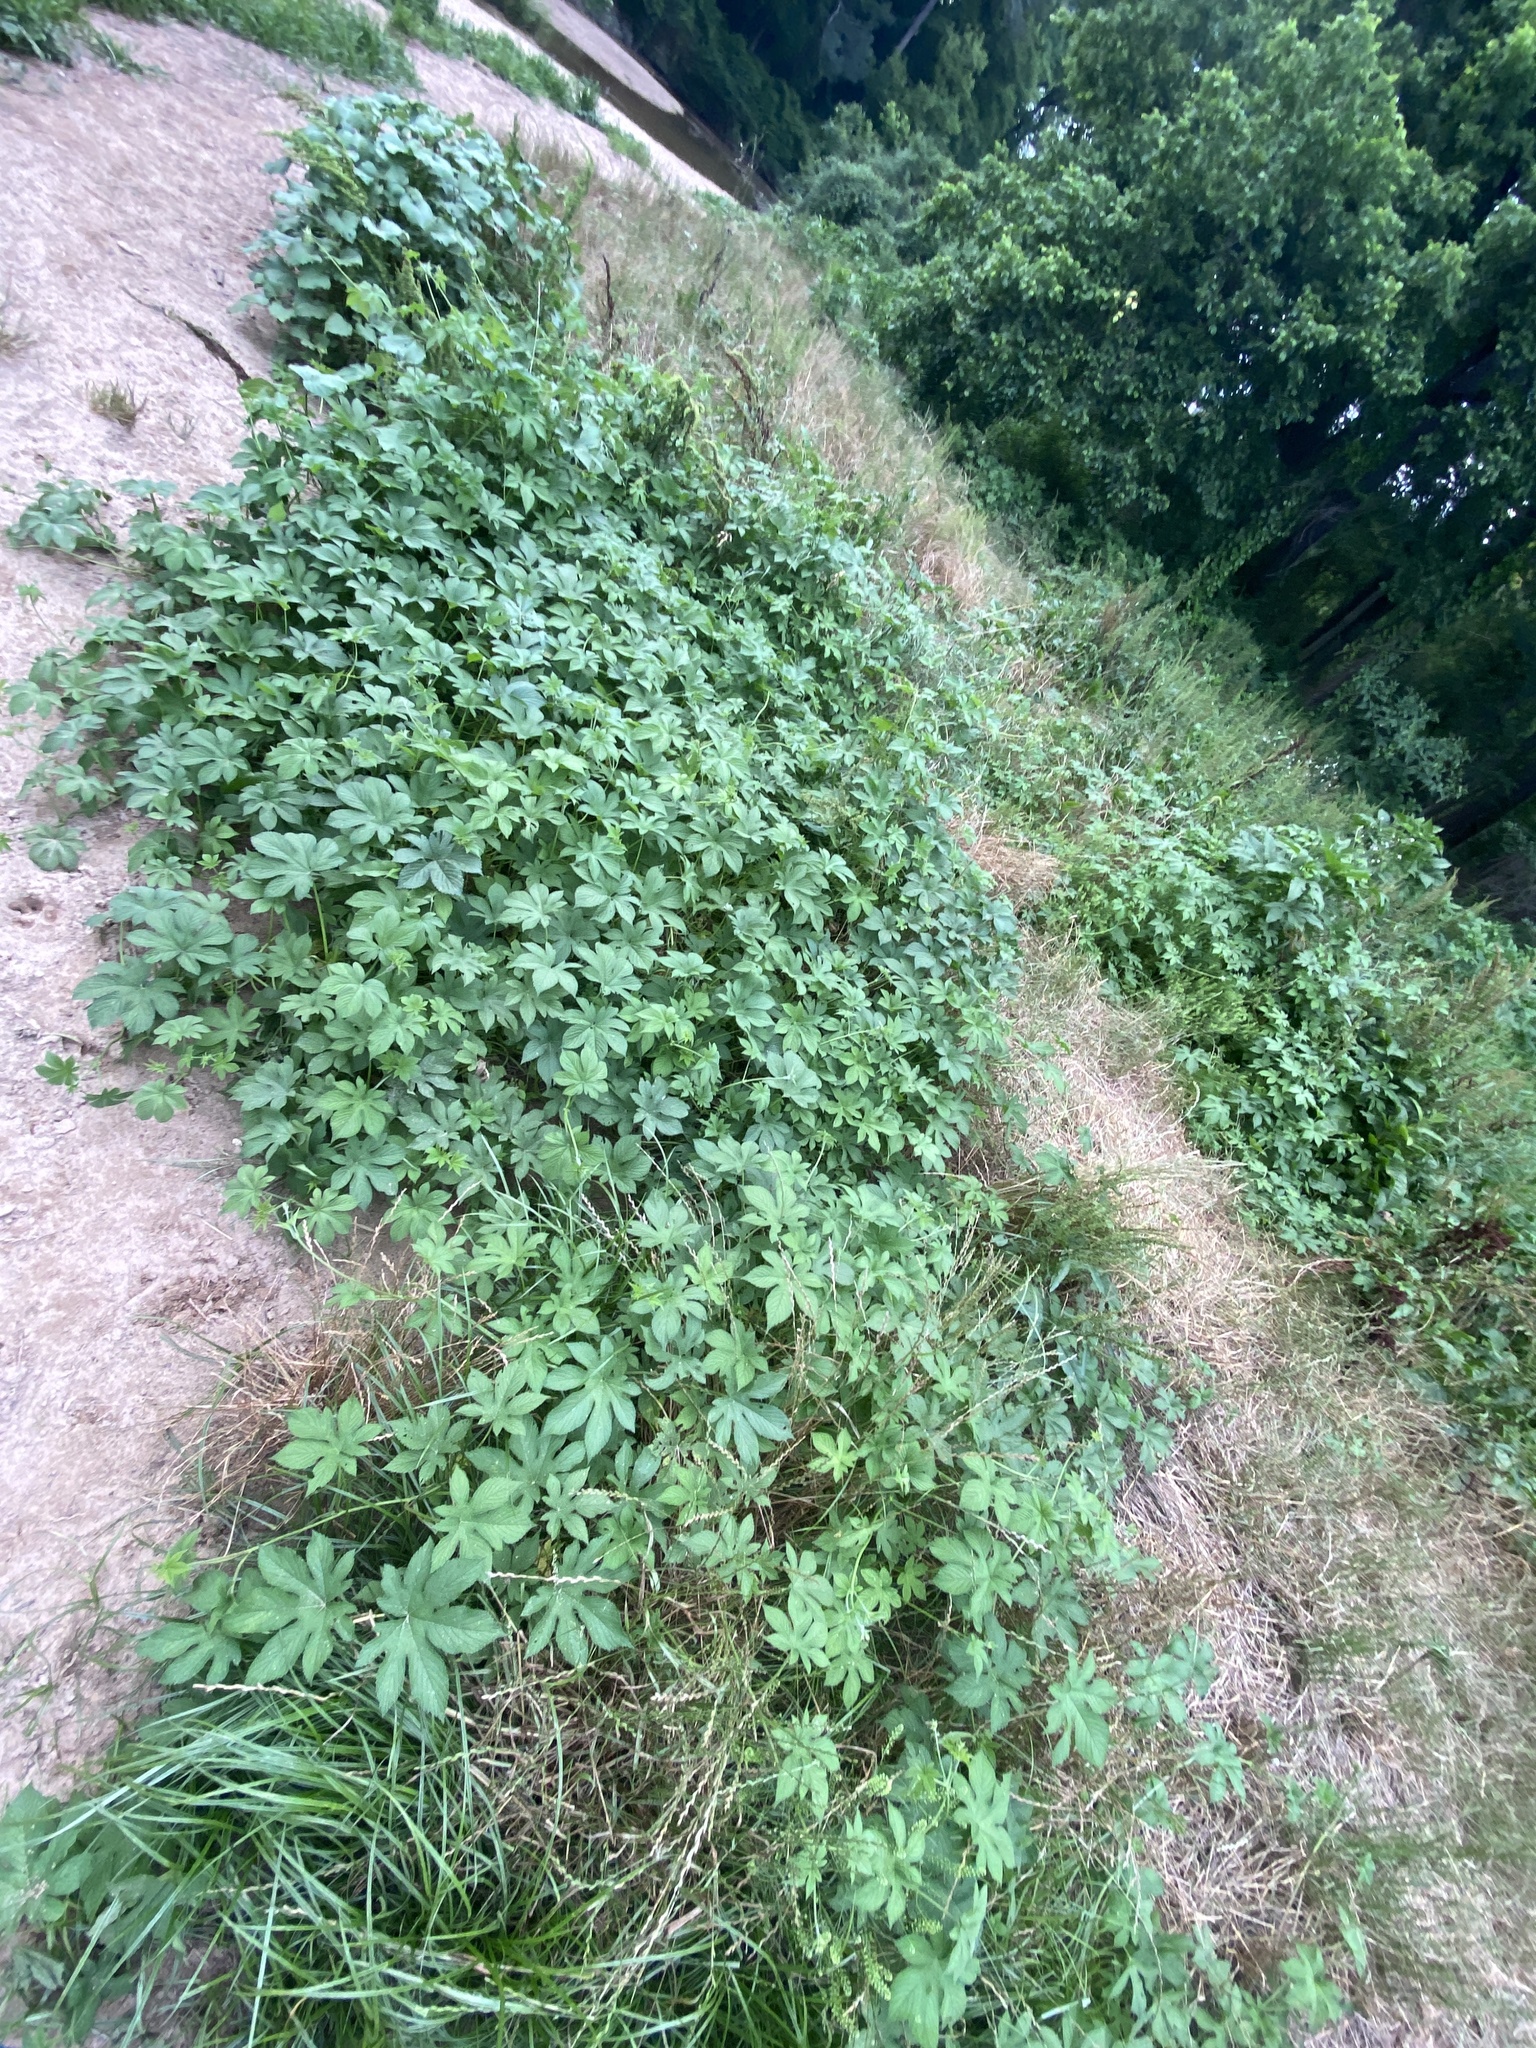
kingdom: Plantae
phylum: Tracheophyta
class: Magnoliopsida
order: Rosales
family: Cannabaceae
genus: Humulus
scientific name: Humulus scandens
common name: Japanese hop
